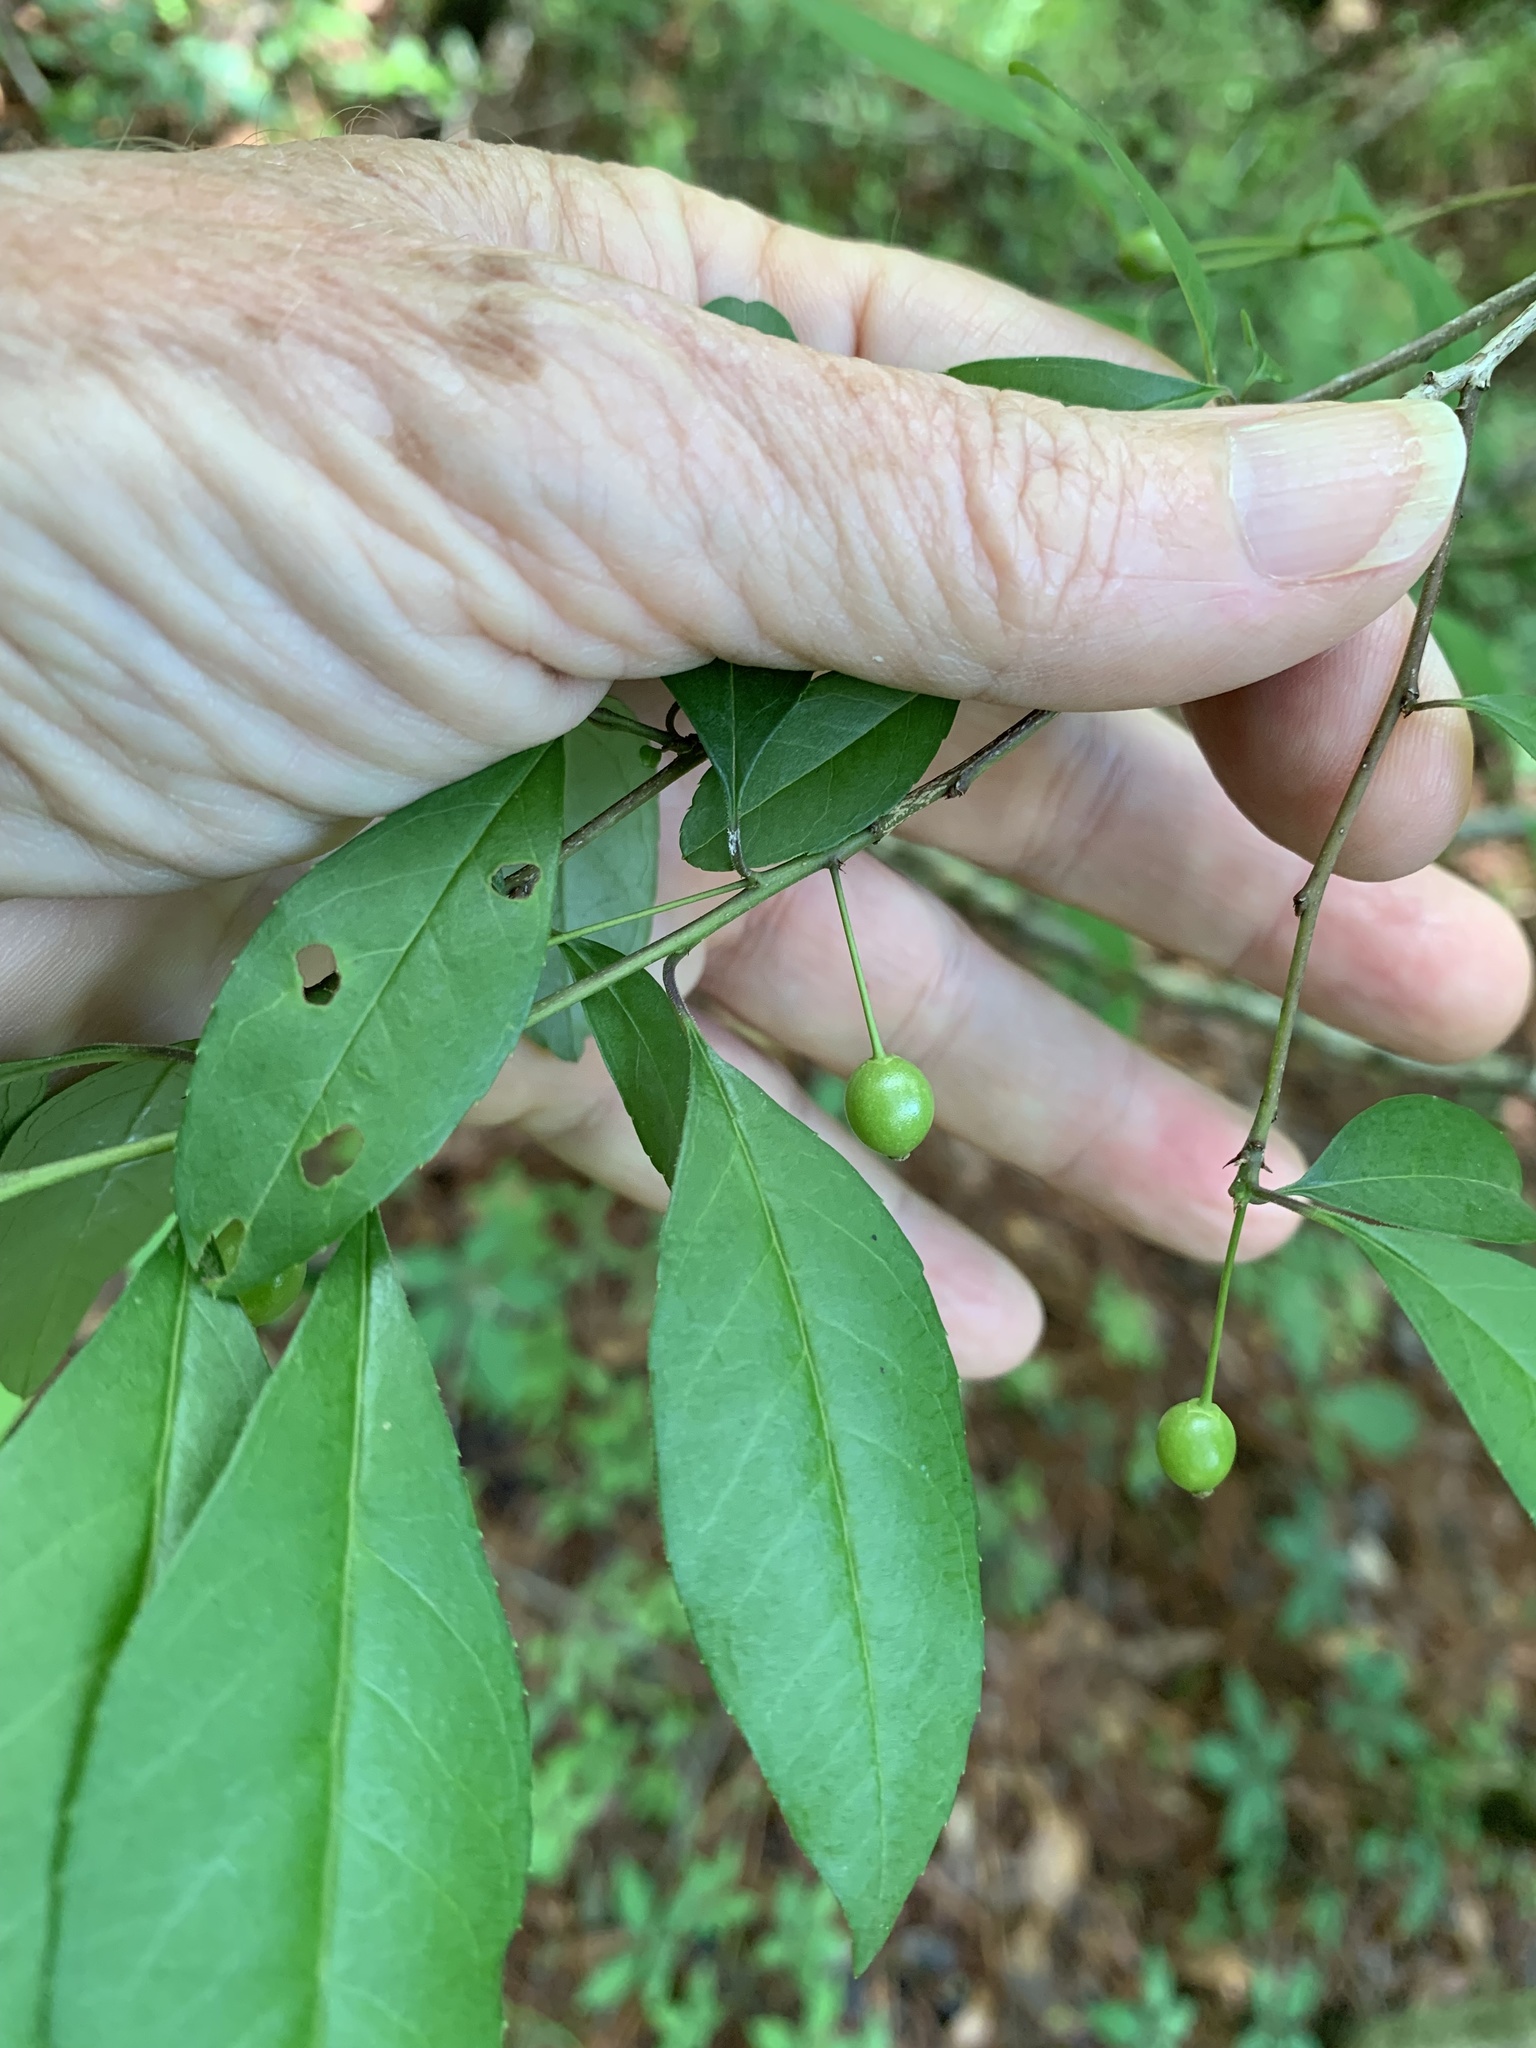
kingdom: Plantae
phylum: Tracheophyta
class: Magnoliopsida
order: Aquifoliales
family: Aquifoliaceae
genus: Ilex
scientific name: Ilex longipes
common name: Georgia holly
